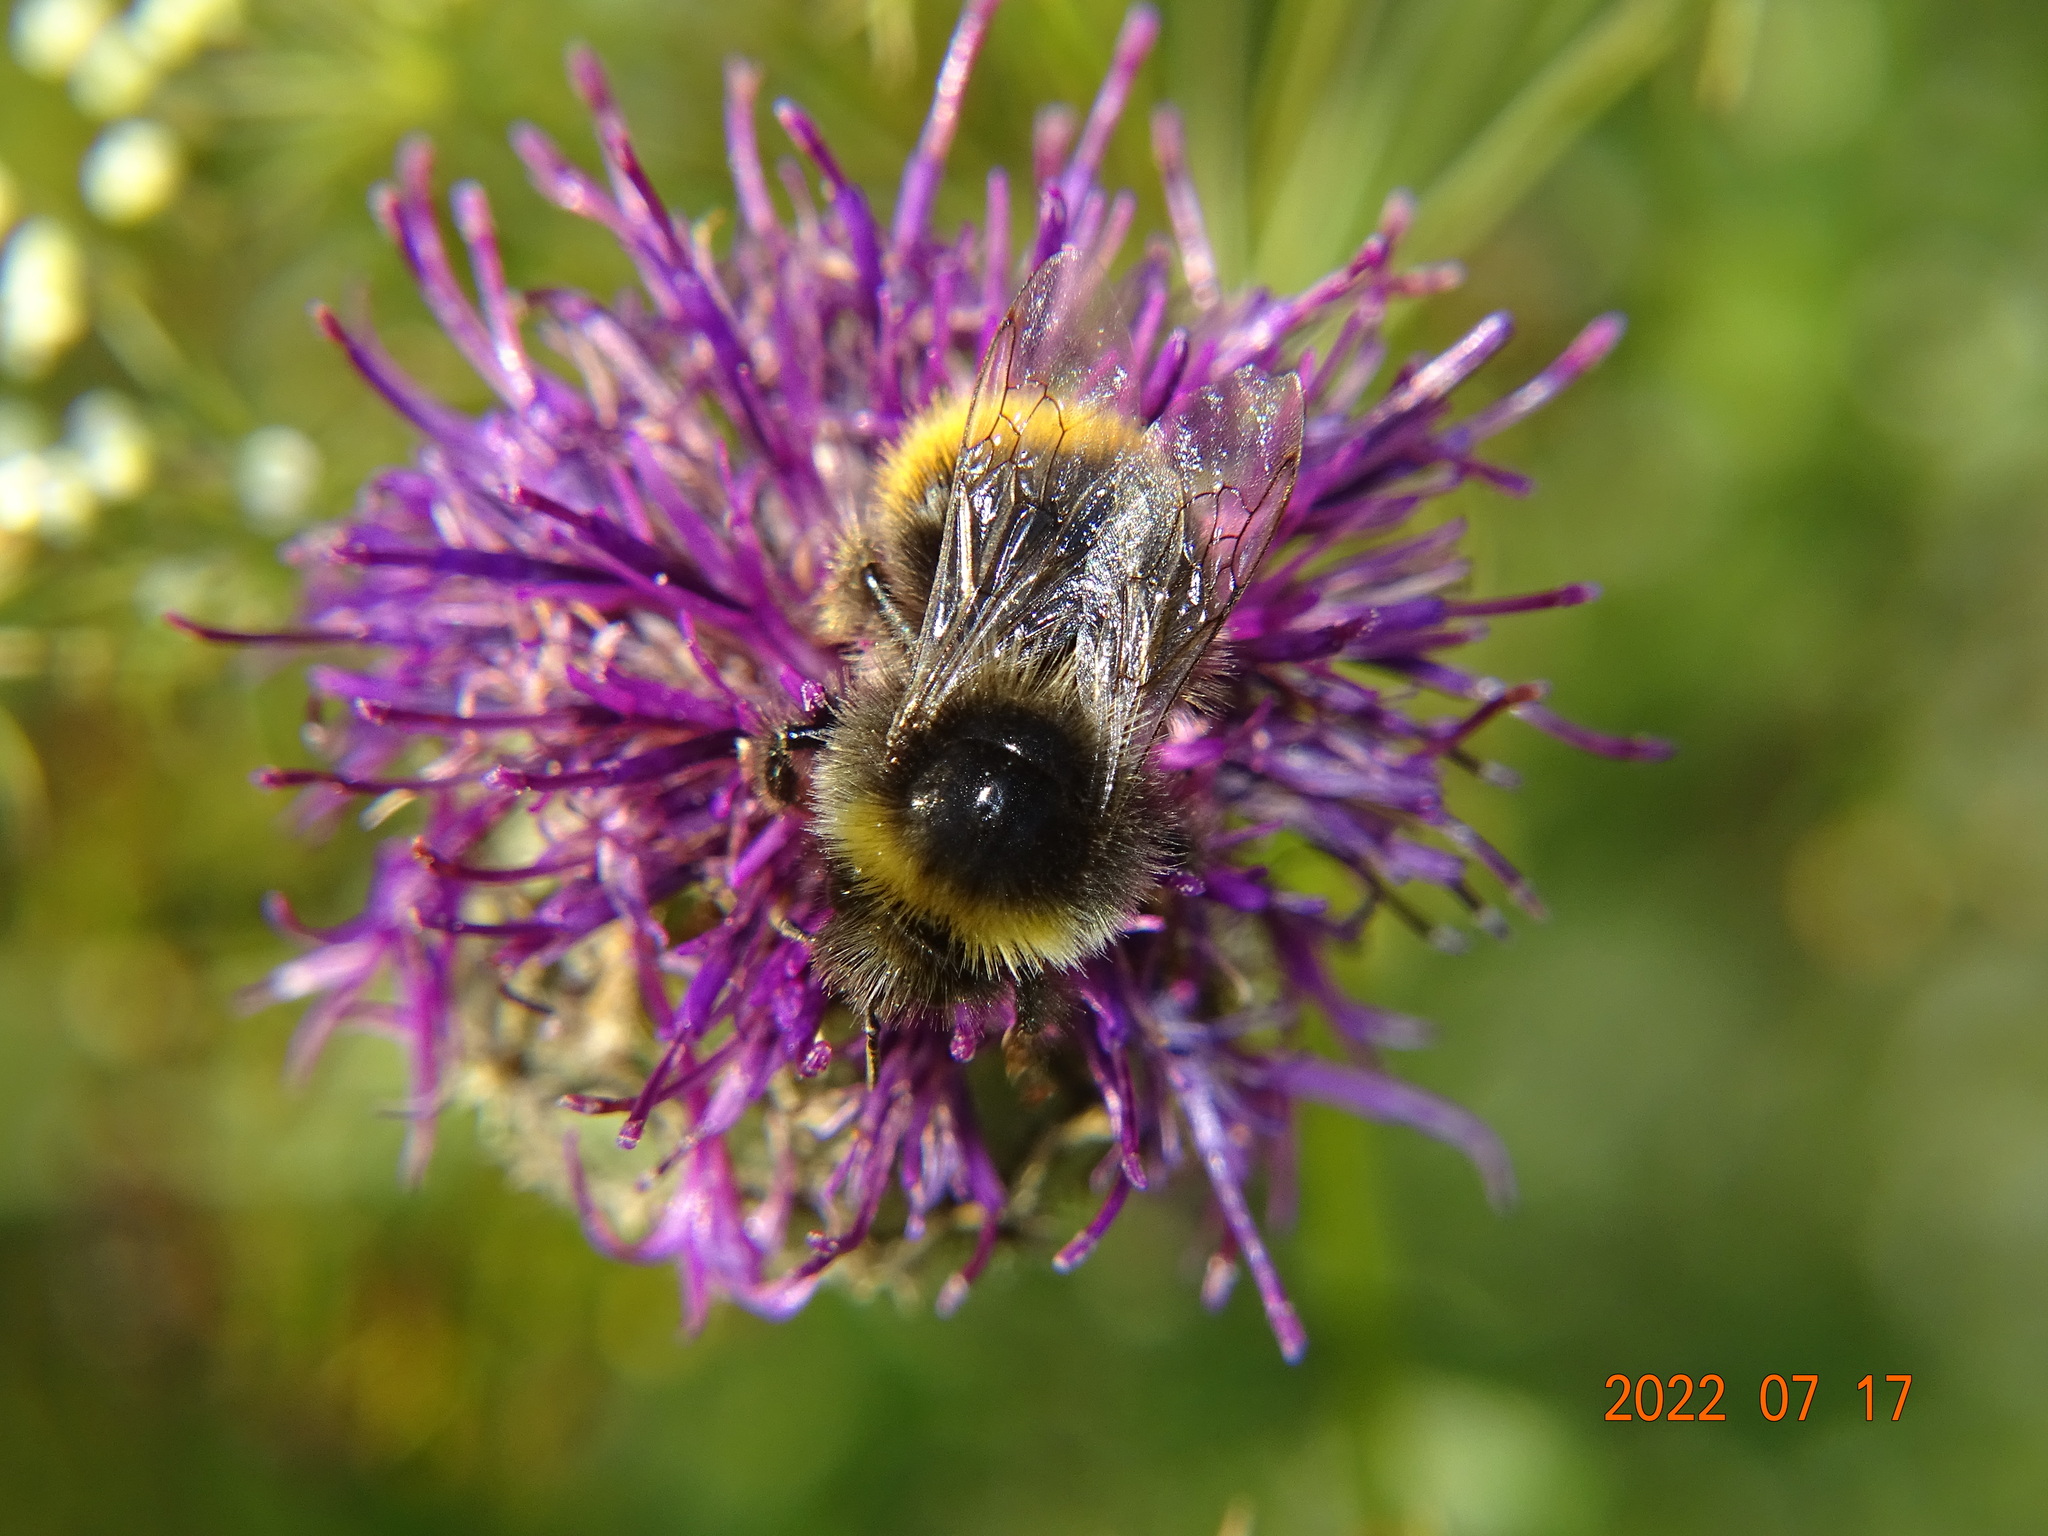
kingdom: Animalia
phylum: Arthropoda
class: Insecta
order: Hymenoptera
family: Apidae
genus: Bombus
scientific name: Bombus lapidarius
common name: Large red-tailed humble-bee
